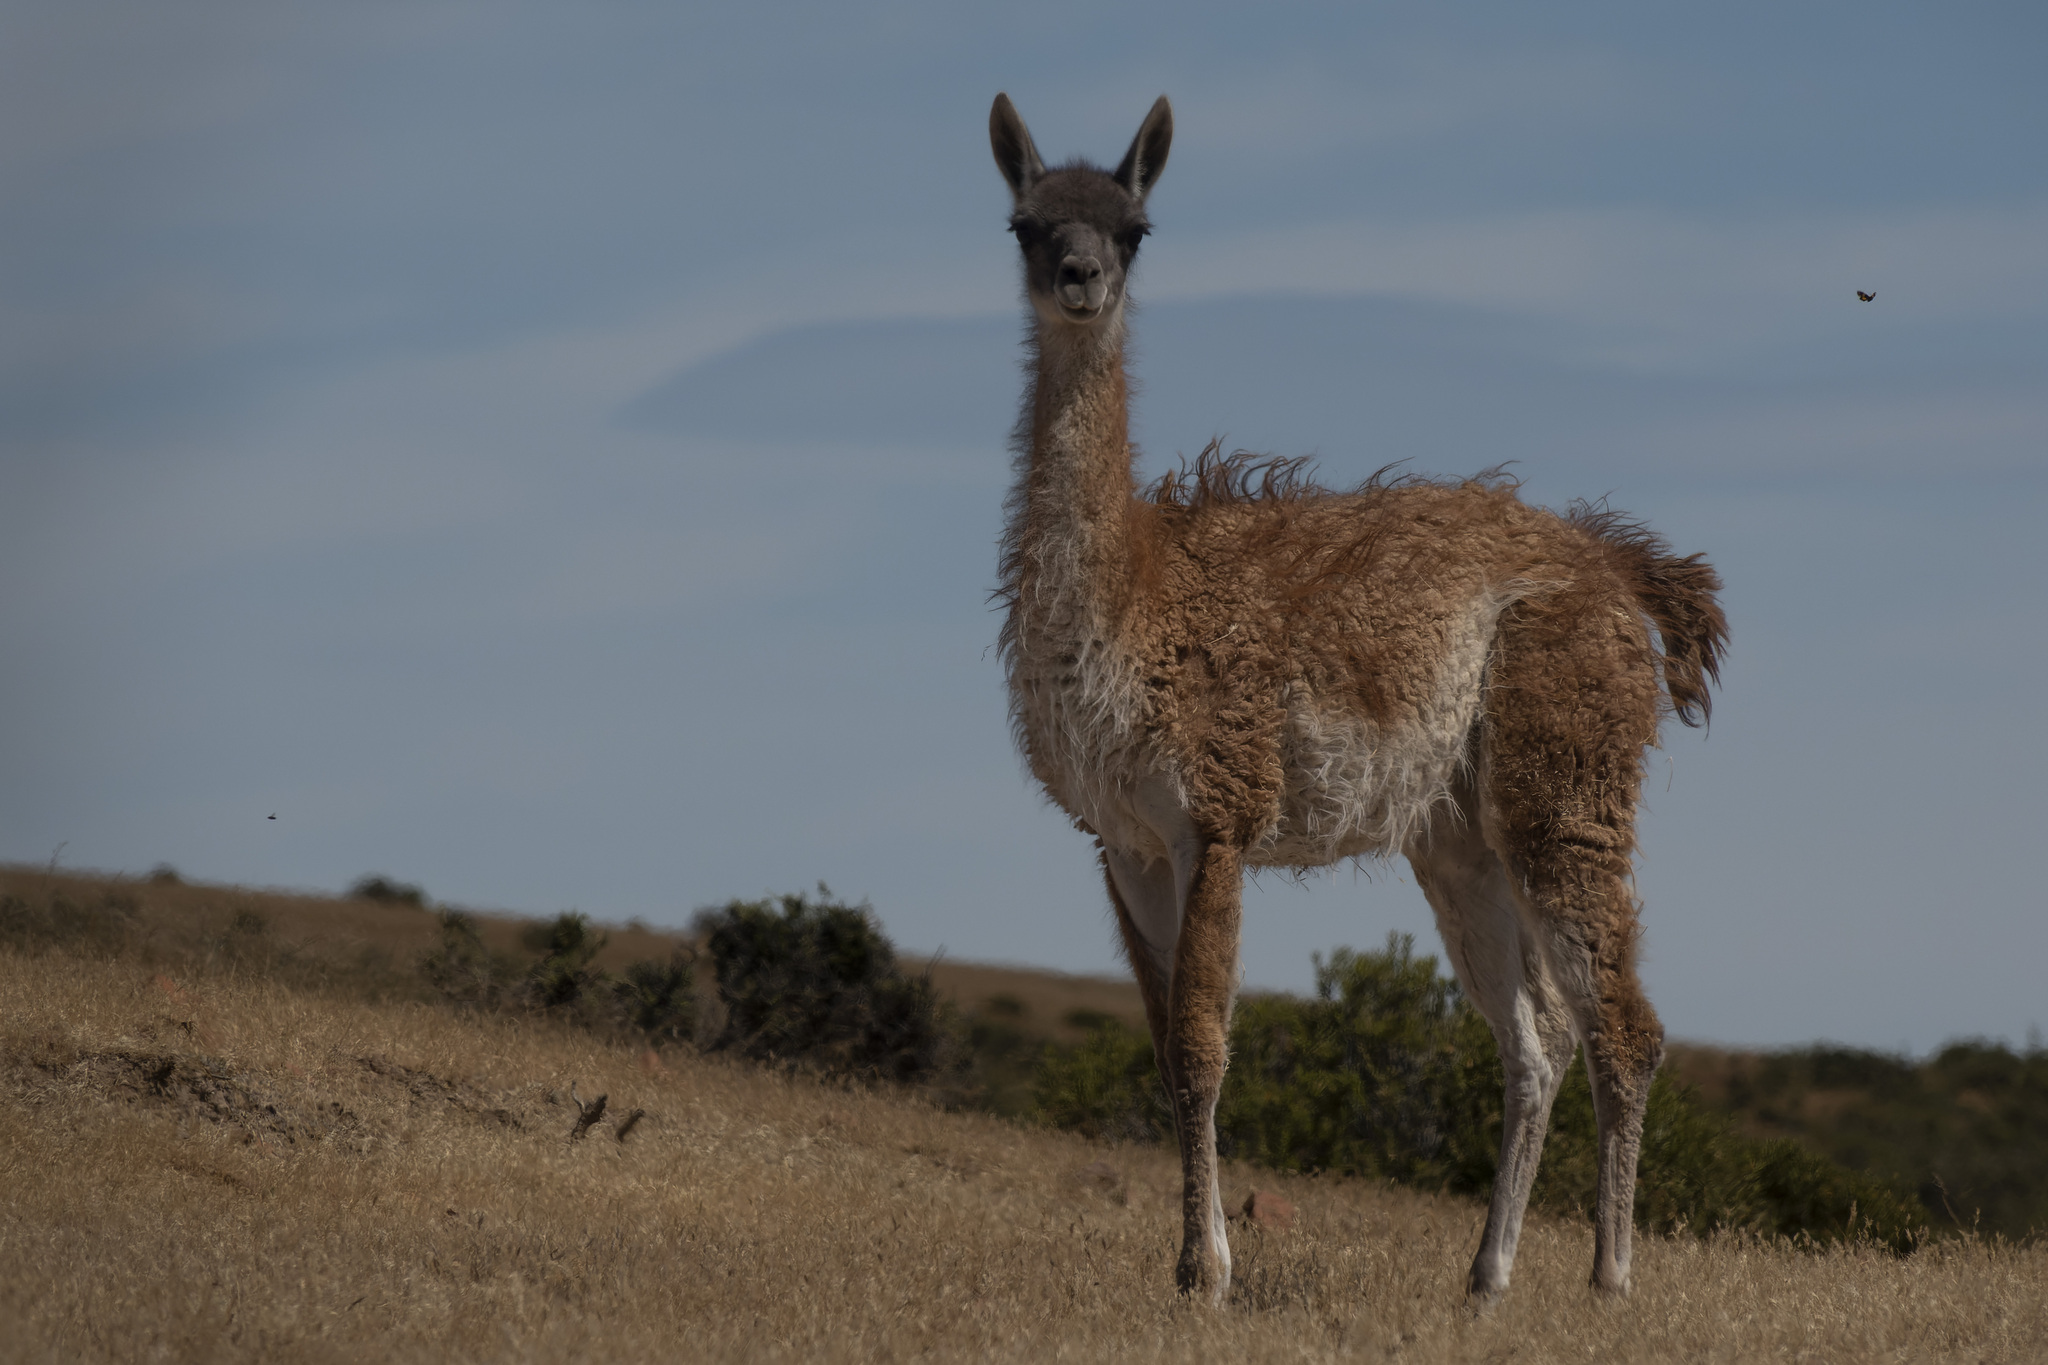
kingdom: Animalia
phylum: Chordata
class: Mammalia
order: Artiodactyla
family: Camelidae
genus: Lama
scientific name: Lama glama
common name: Llama
